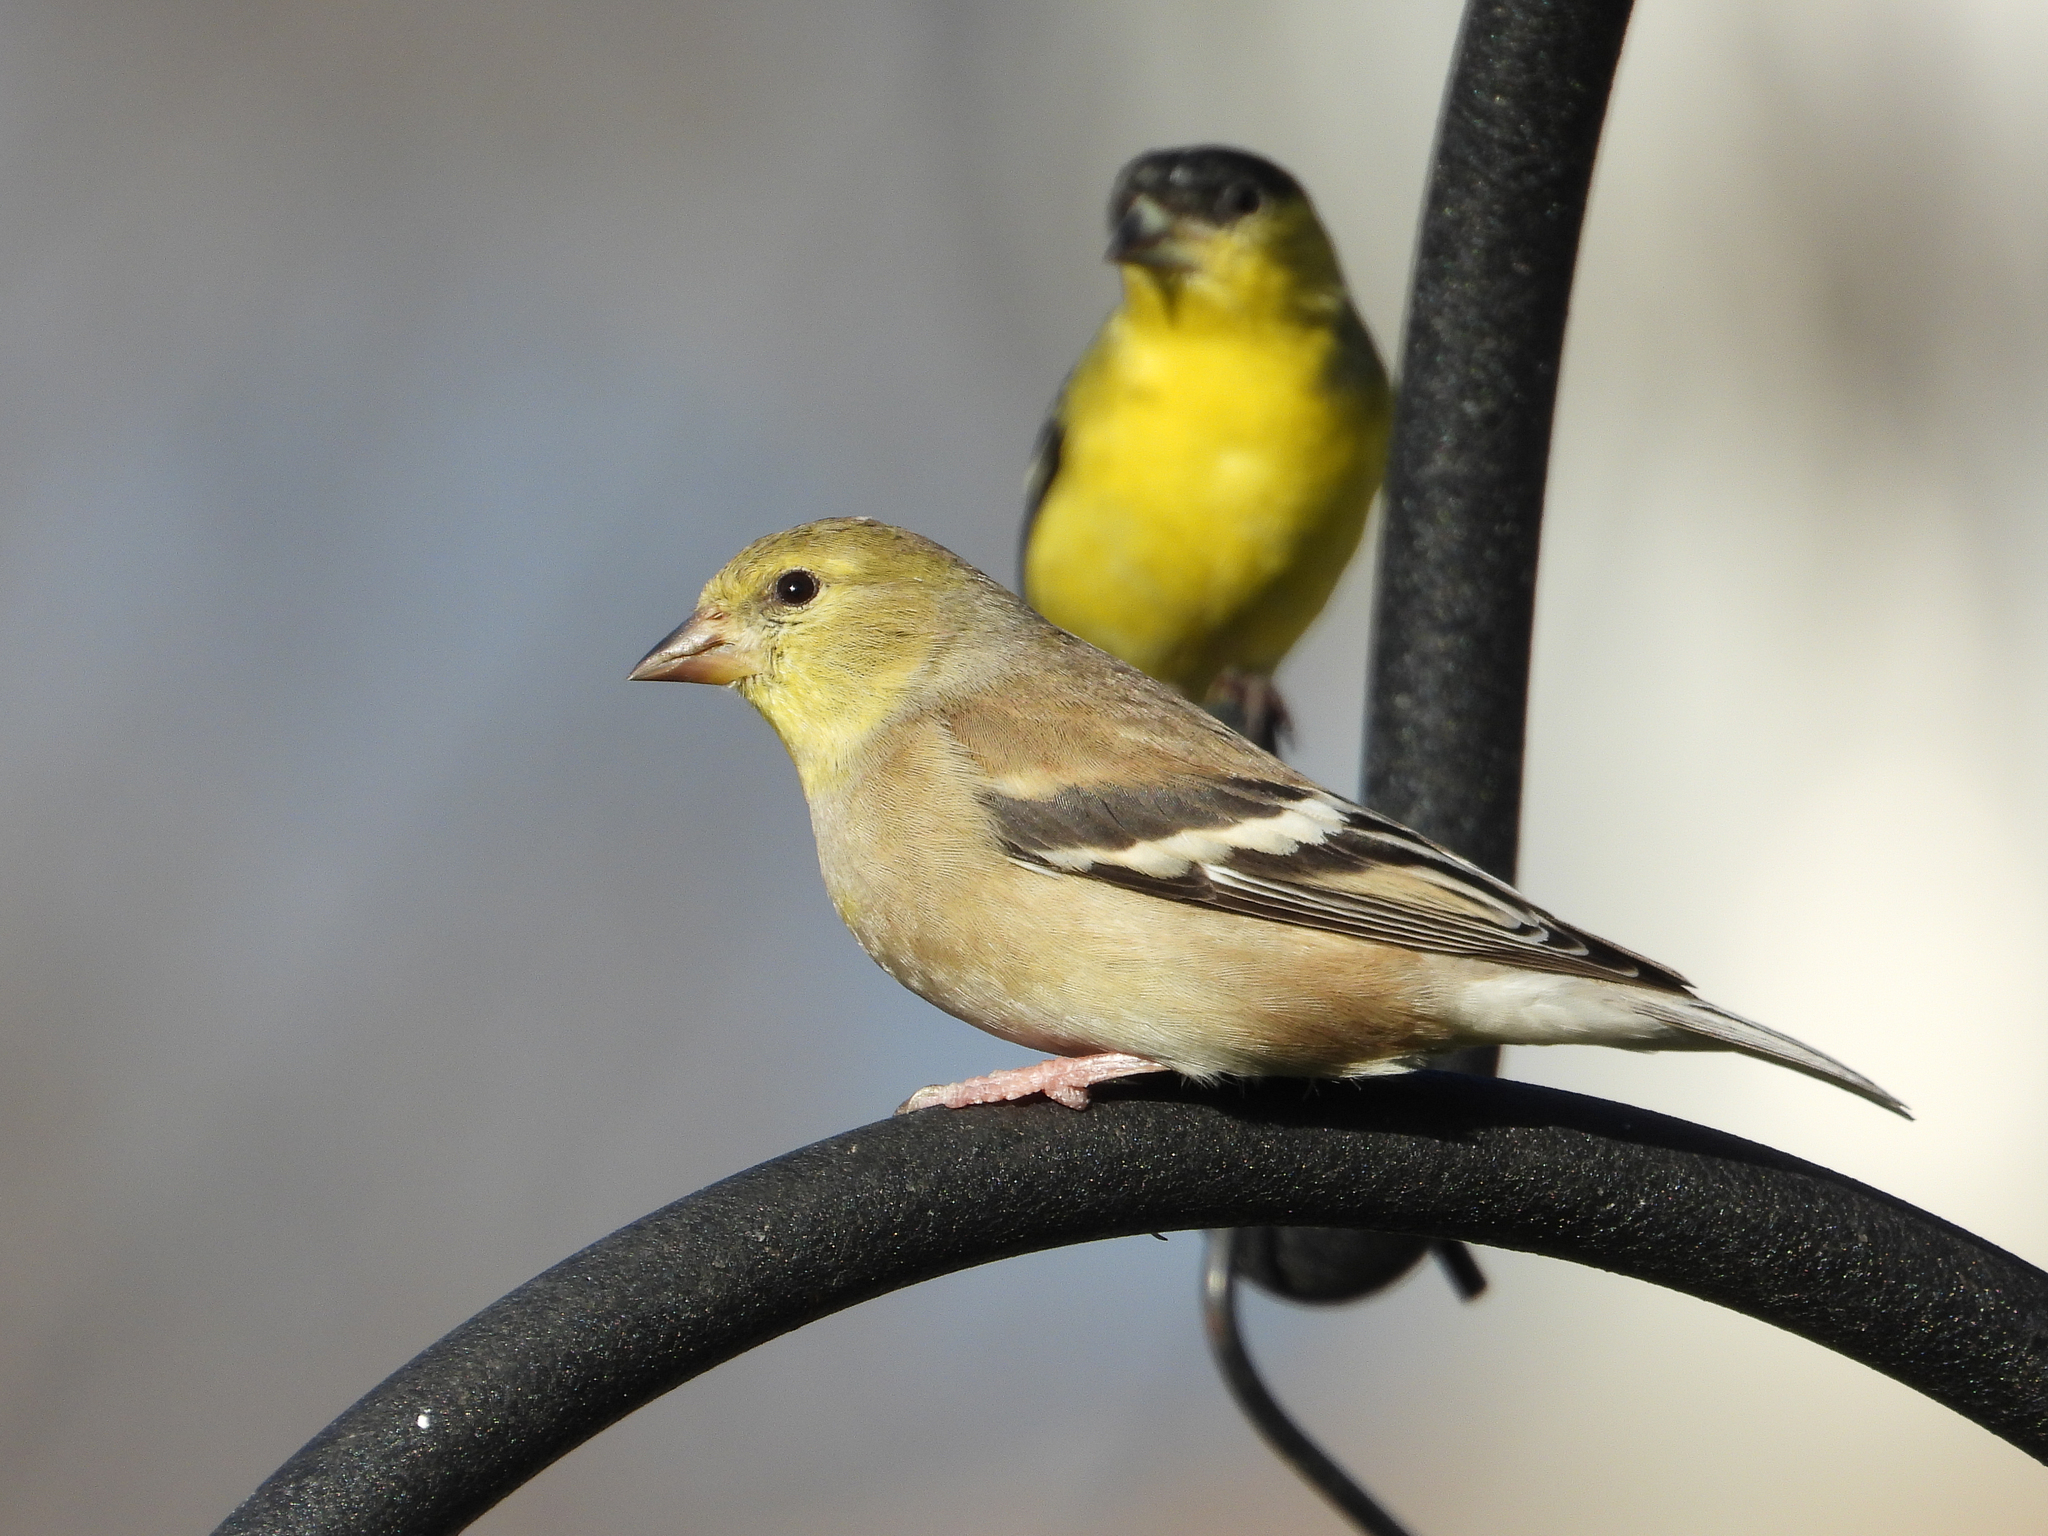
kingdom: Animalia
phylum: Chordata
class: Aves
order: Passeriformes
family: Fringillidae
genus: Spinus
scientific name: Spinus tristis
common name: American goldfinch
